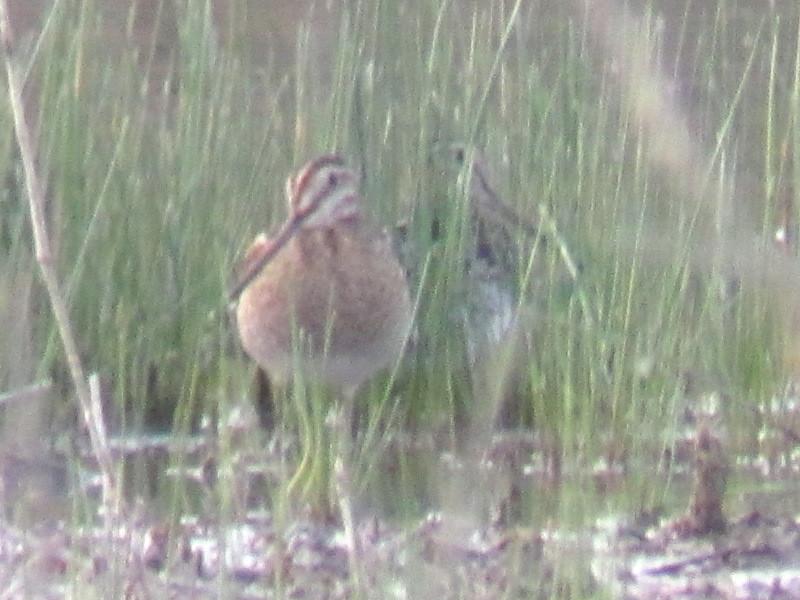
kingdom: Animalia
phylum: Chordata
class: Aves
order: Charadriiformes
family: Scolopacidae
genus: Gallinago
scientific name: Gallinago delicata
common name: Wilson's snipe
